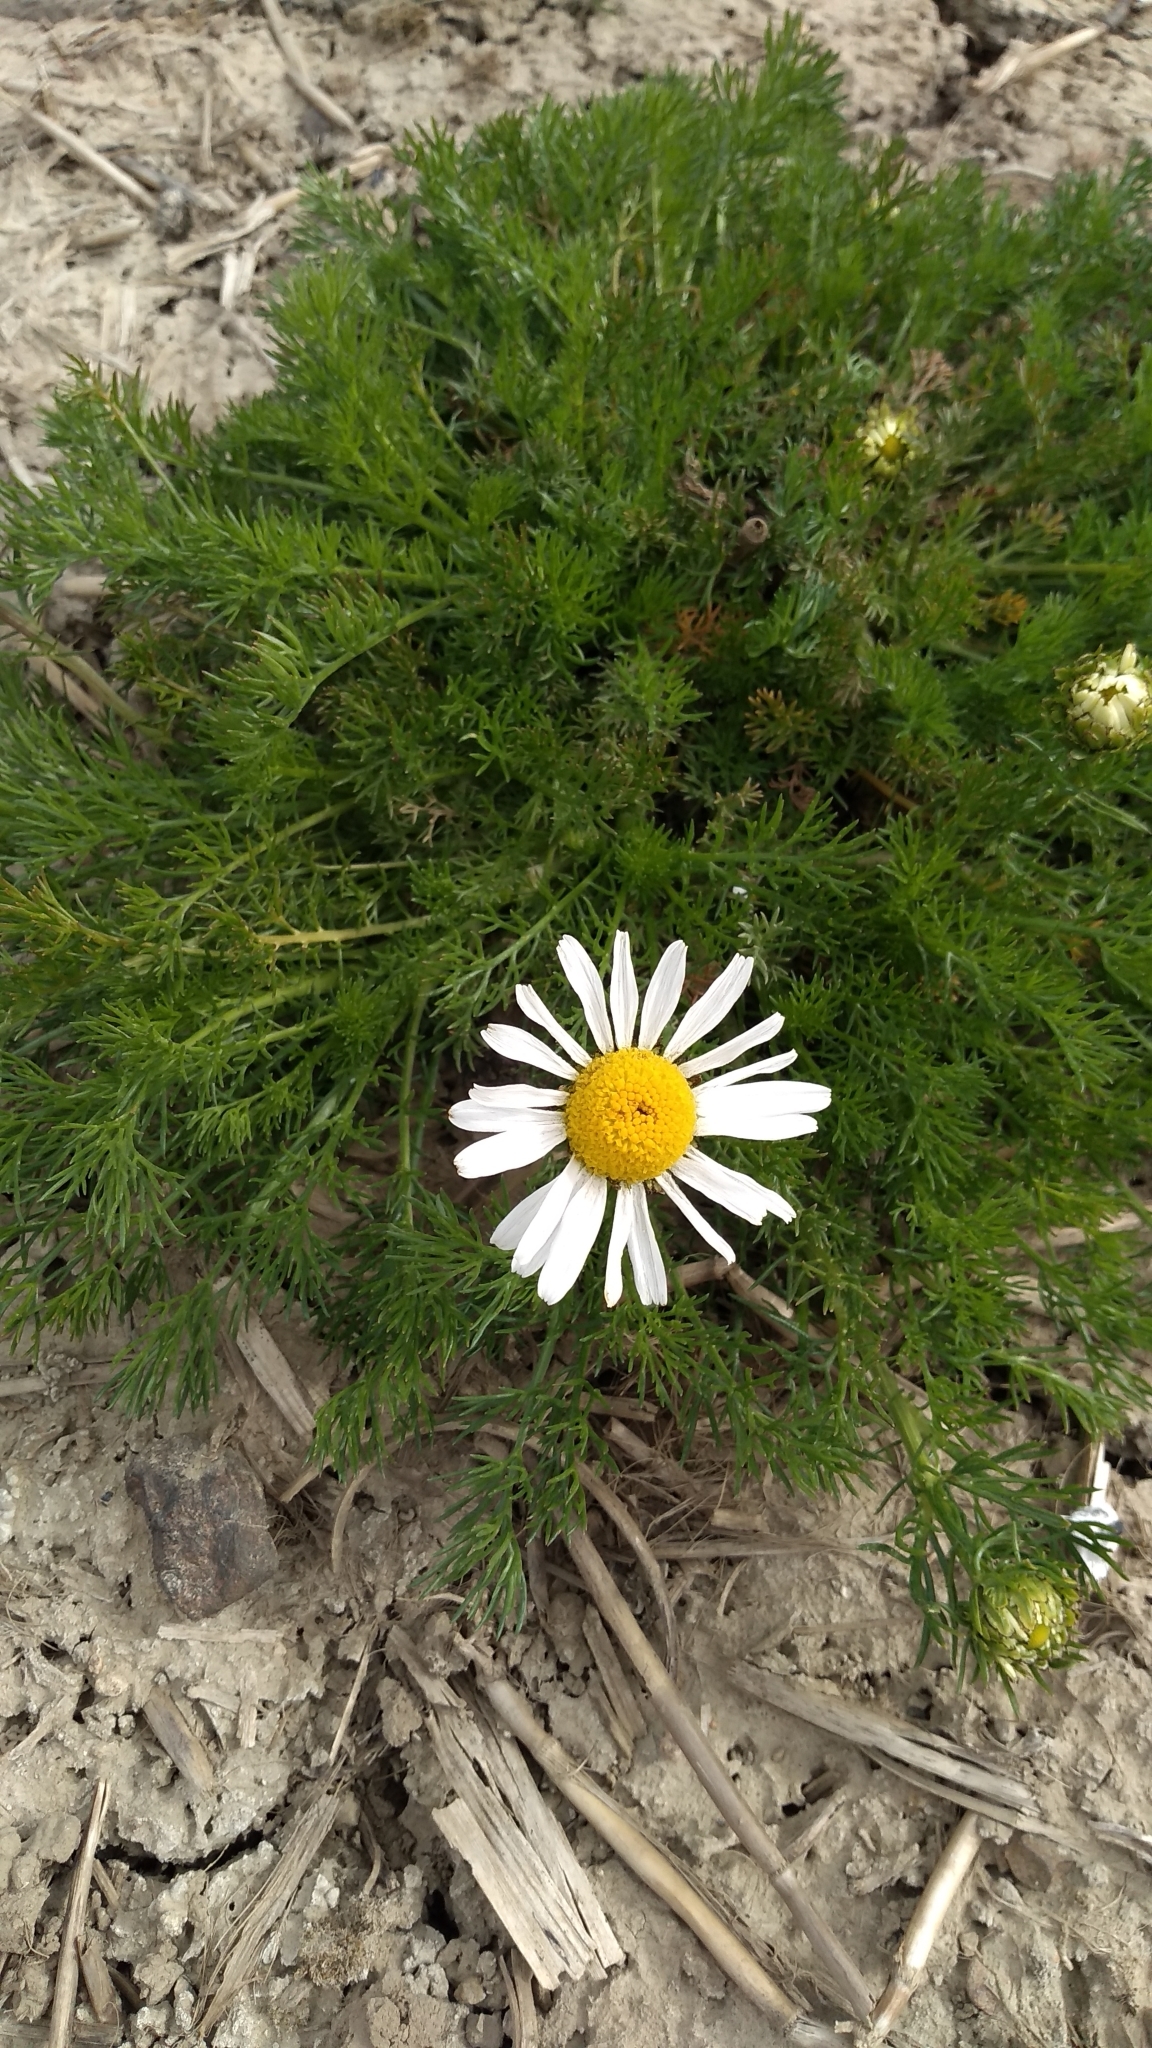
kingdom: Plantae
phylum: Tracheophyta
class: Magnoliopsida
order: Asterales
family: Asteraceae
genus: Tripleurospermum
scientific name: Tripleurospermum inodorum
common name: Scentless mayweed
